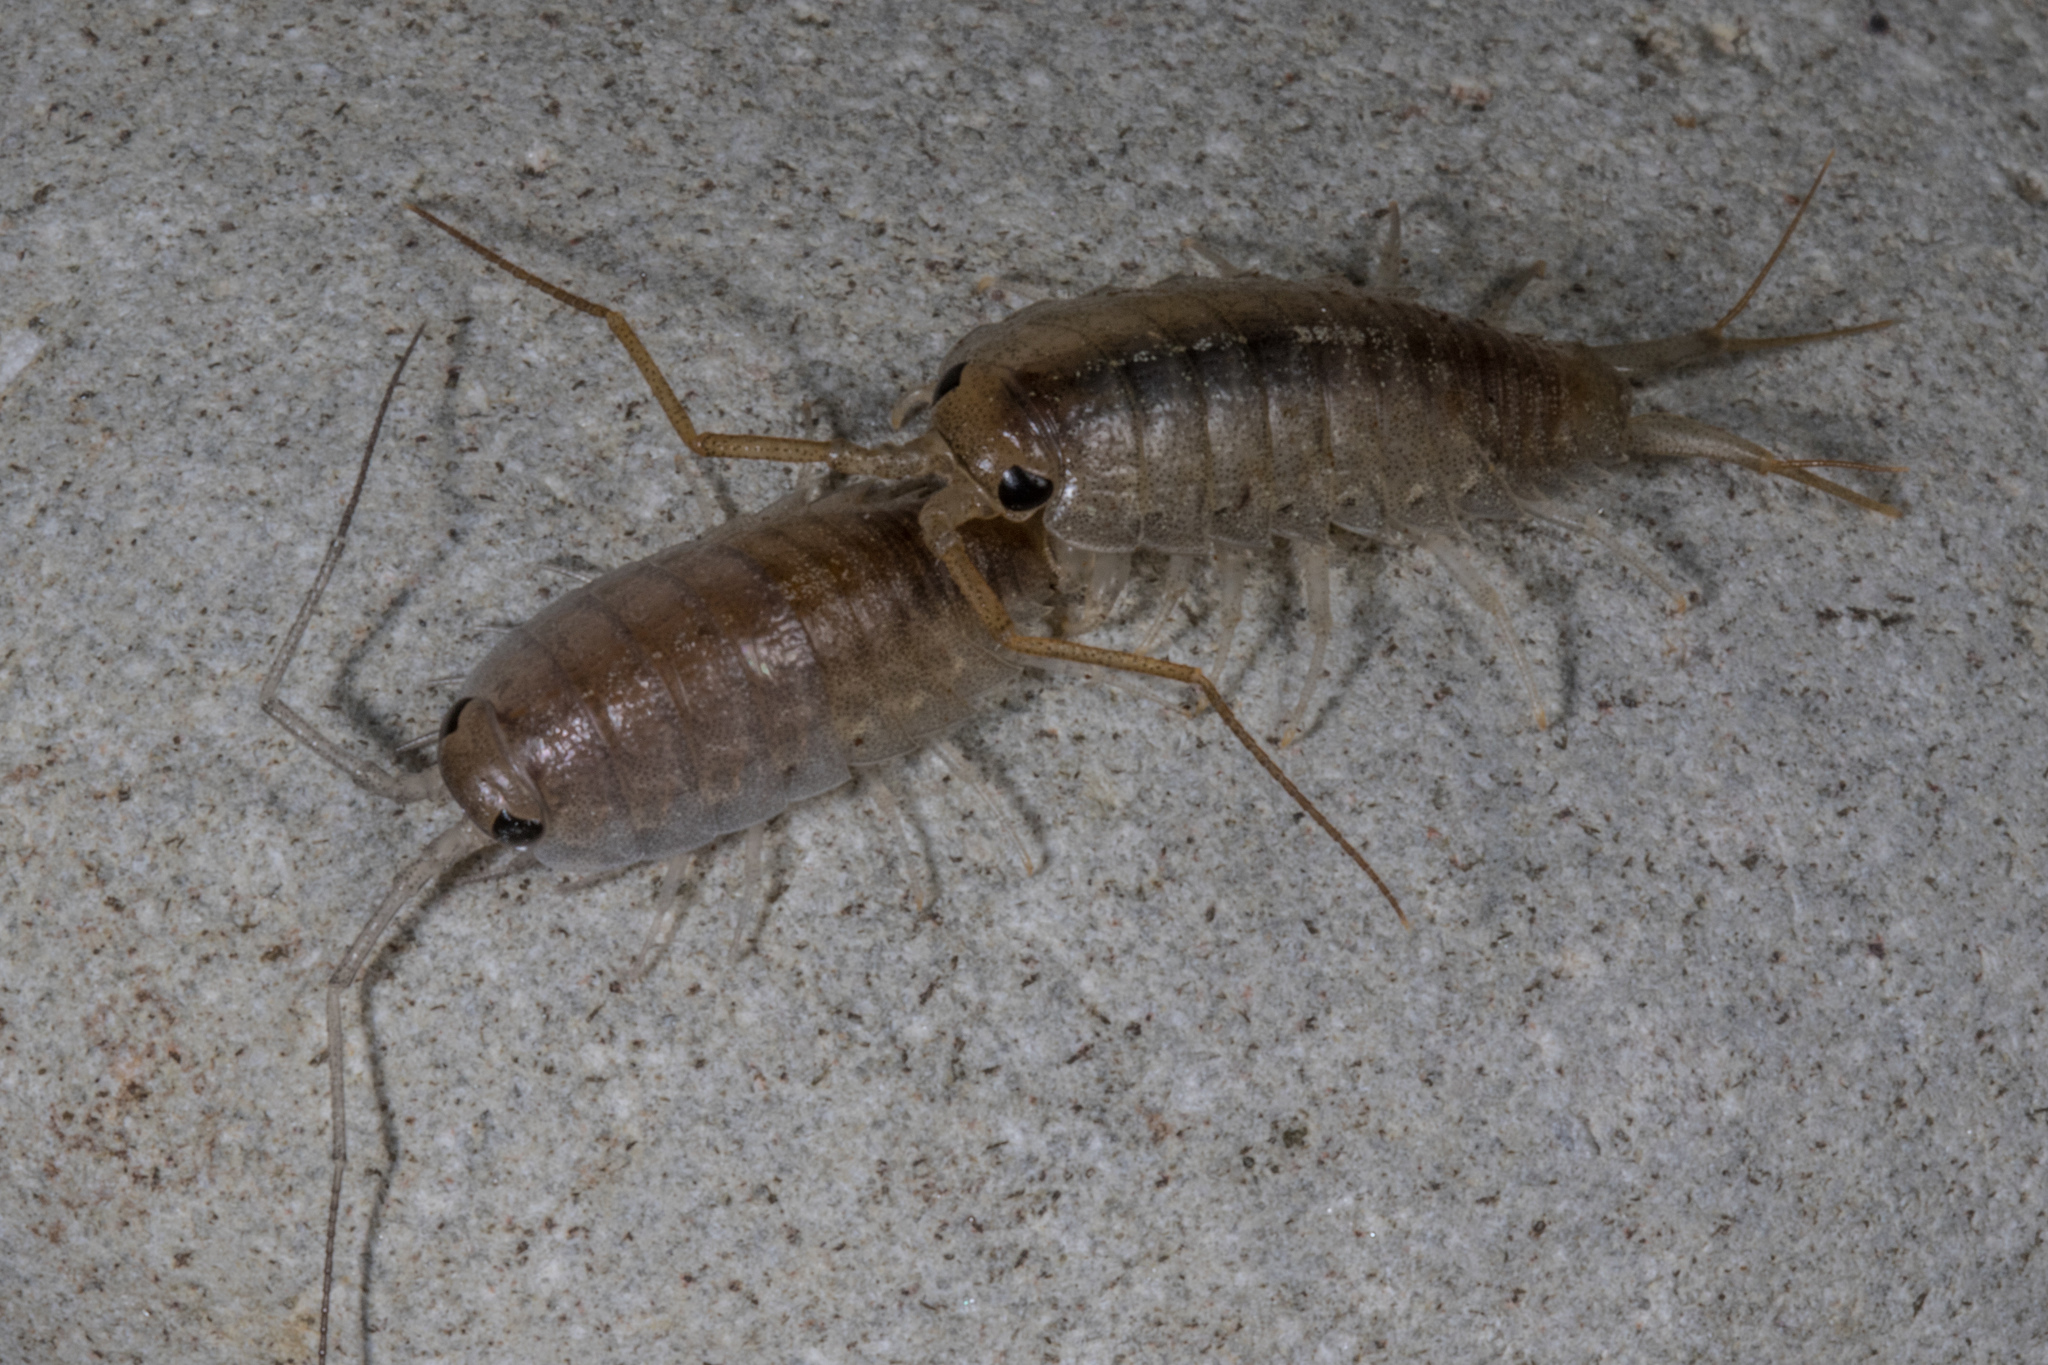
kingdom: Animalia
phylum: Arthropoda
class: Malacostraca
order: Isopoda
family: Ligiidae
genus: Ligia
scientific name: Ligia novizealandiae
